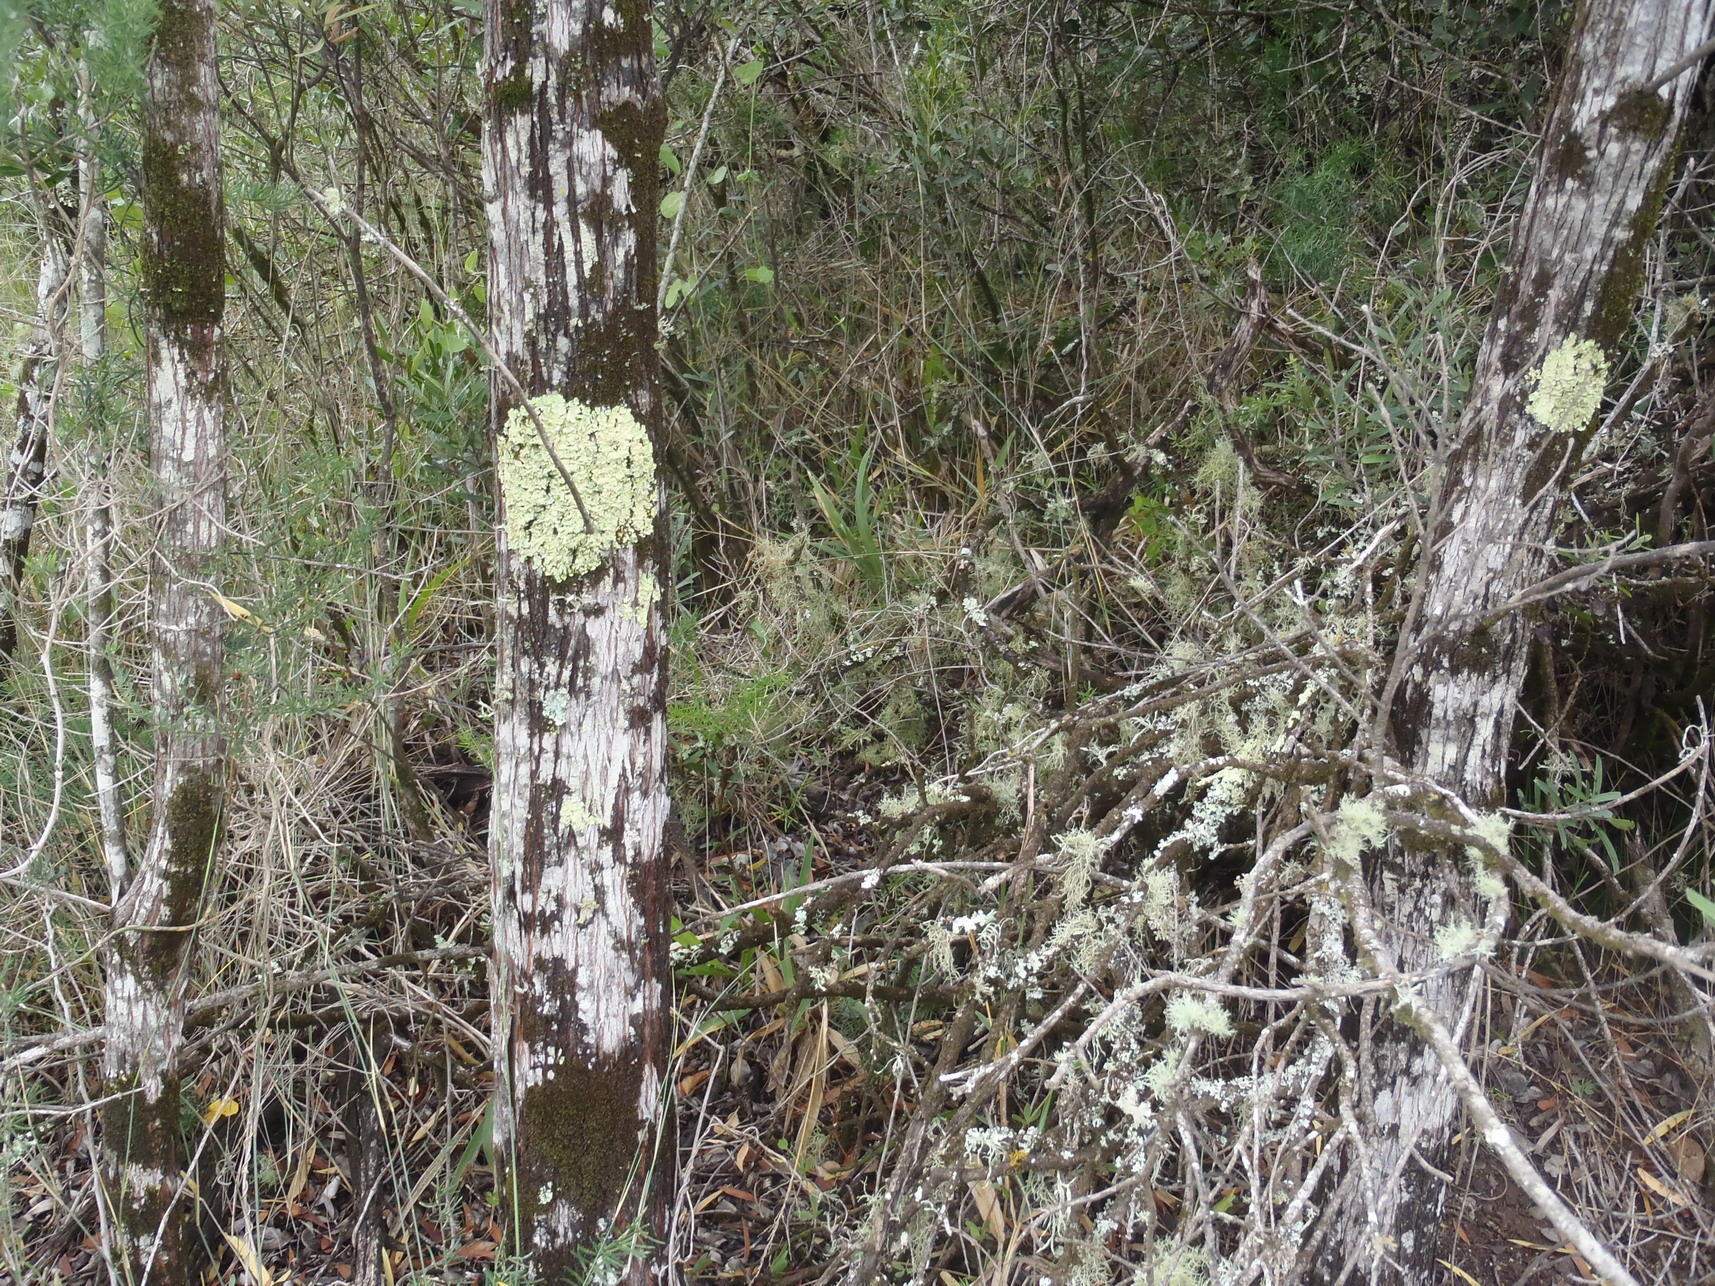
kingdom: Fungi
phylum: Ascomycota
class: Lecanoromycetes
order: Lecanorales
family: Parmeliaceae
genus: Flavoparmelia
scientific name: Flavoparmelia caperata
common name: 40-mile per hour lichen
